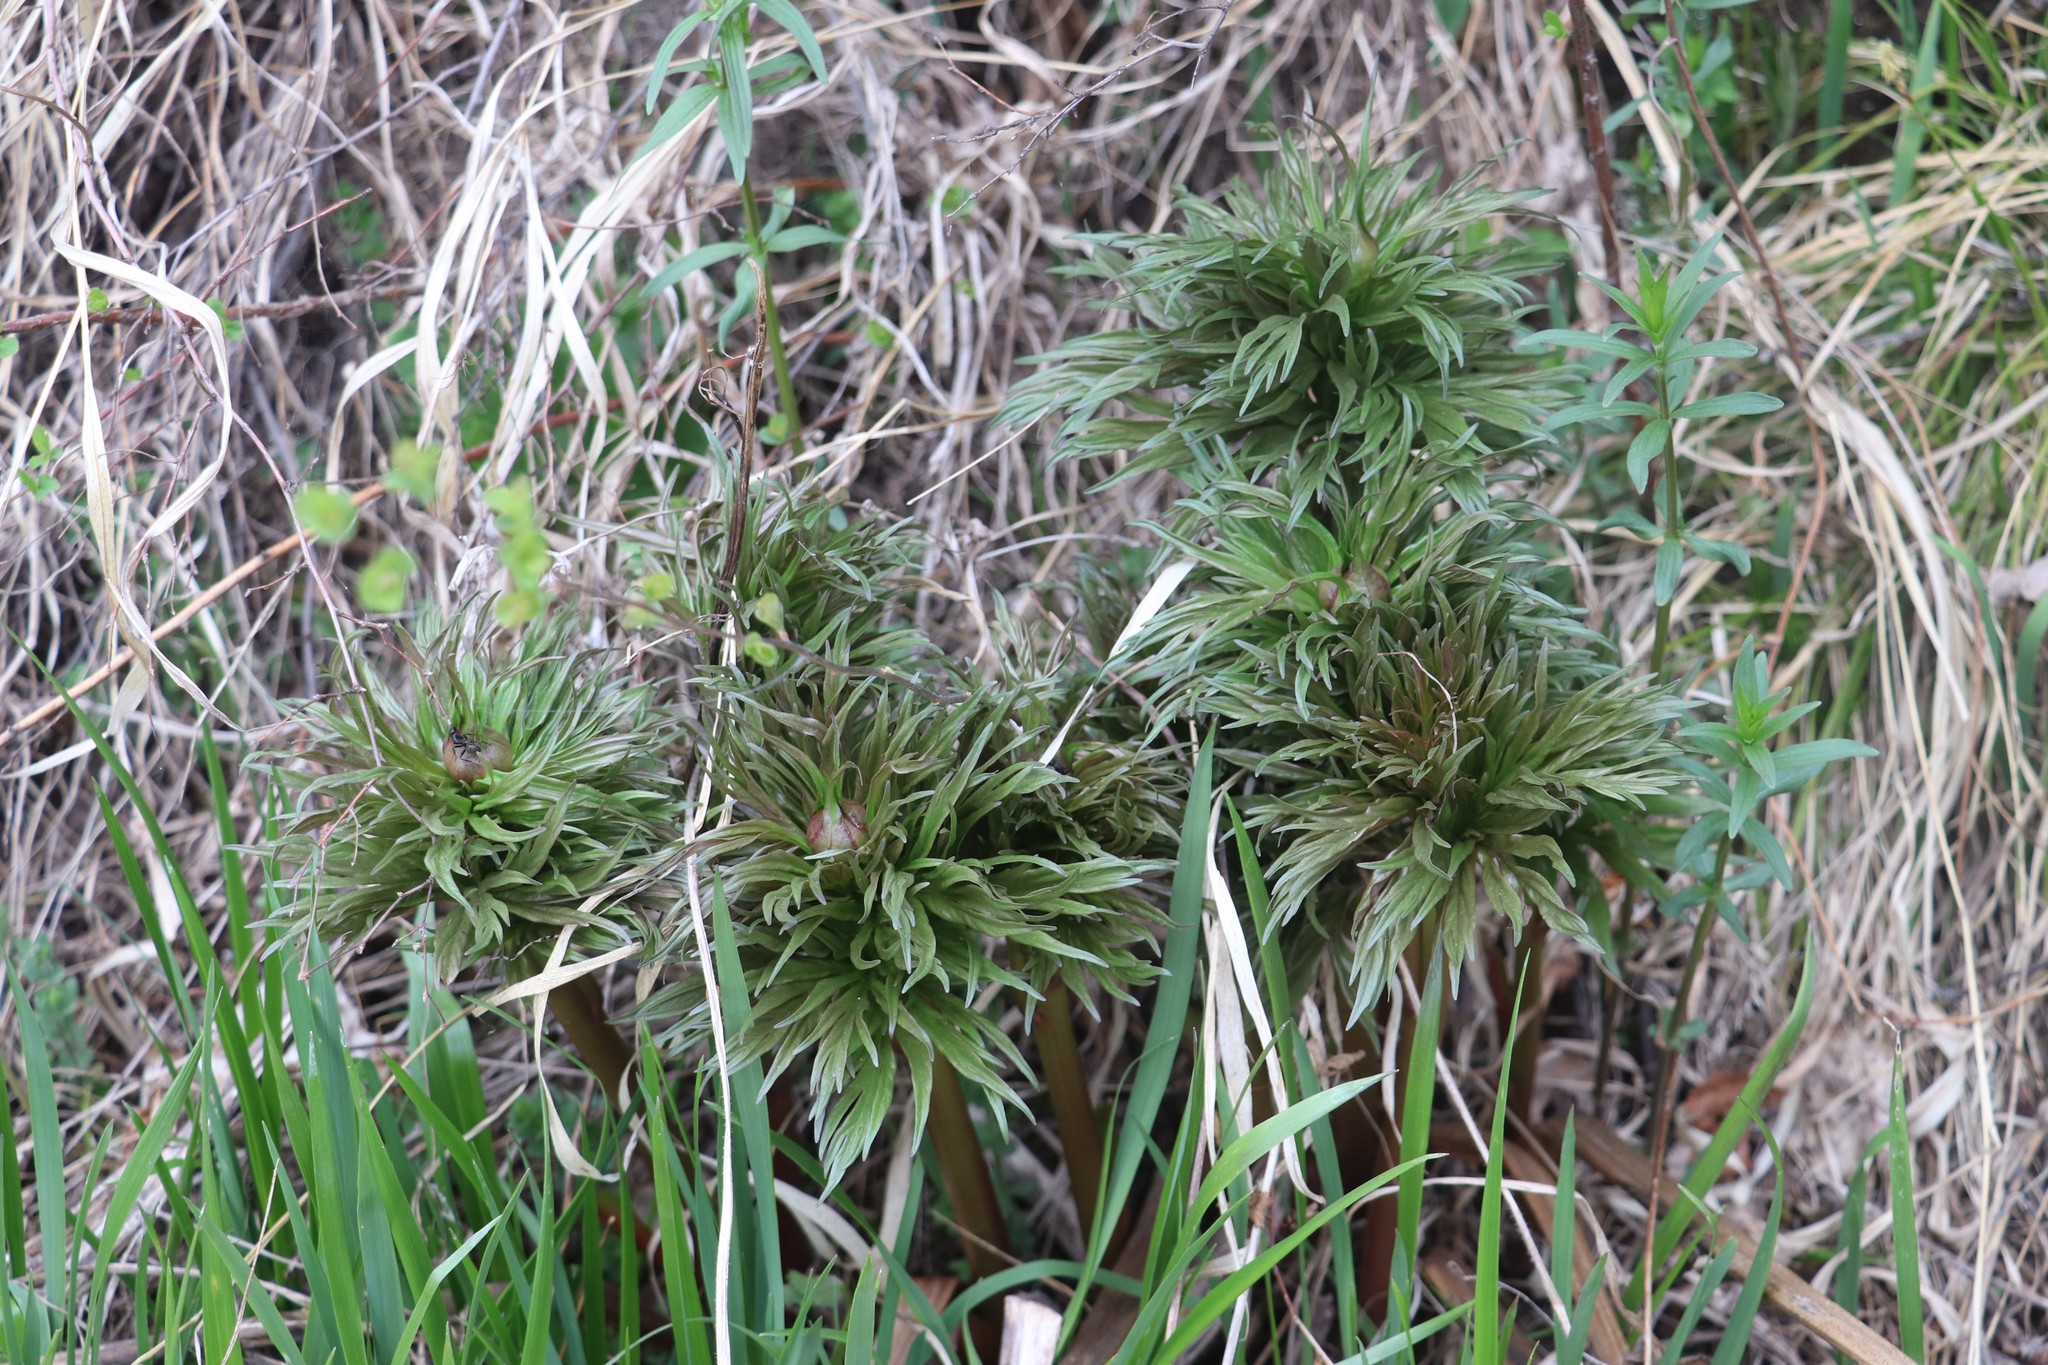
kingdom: Plantae
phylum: Tracheophyta
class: Magnoliopsida
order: Saxifragales
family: Paeoniaceae
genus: Paeonia
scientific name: Paeonia anomala
